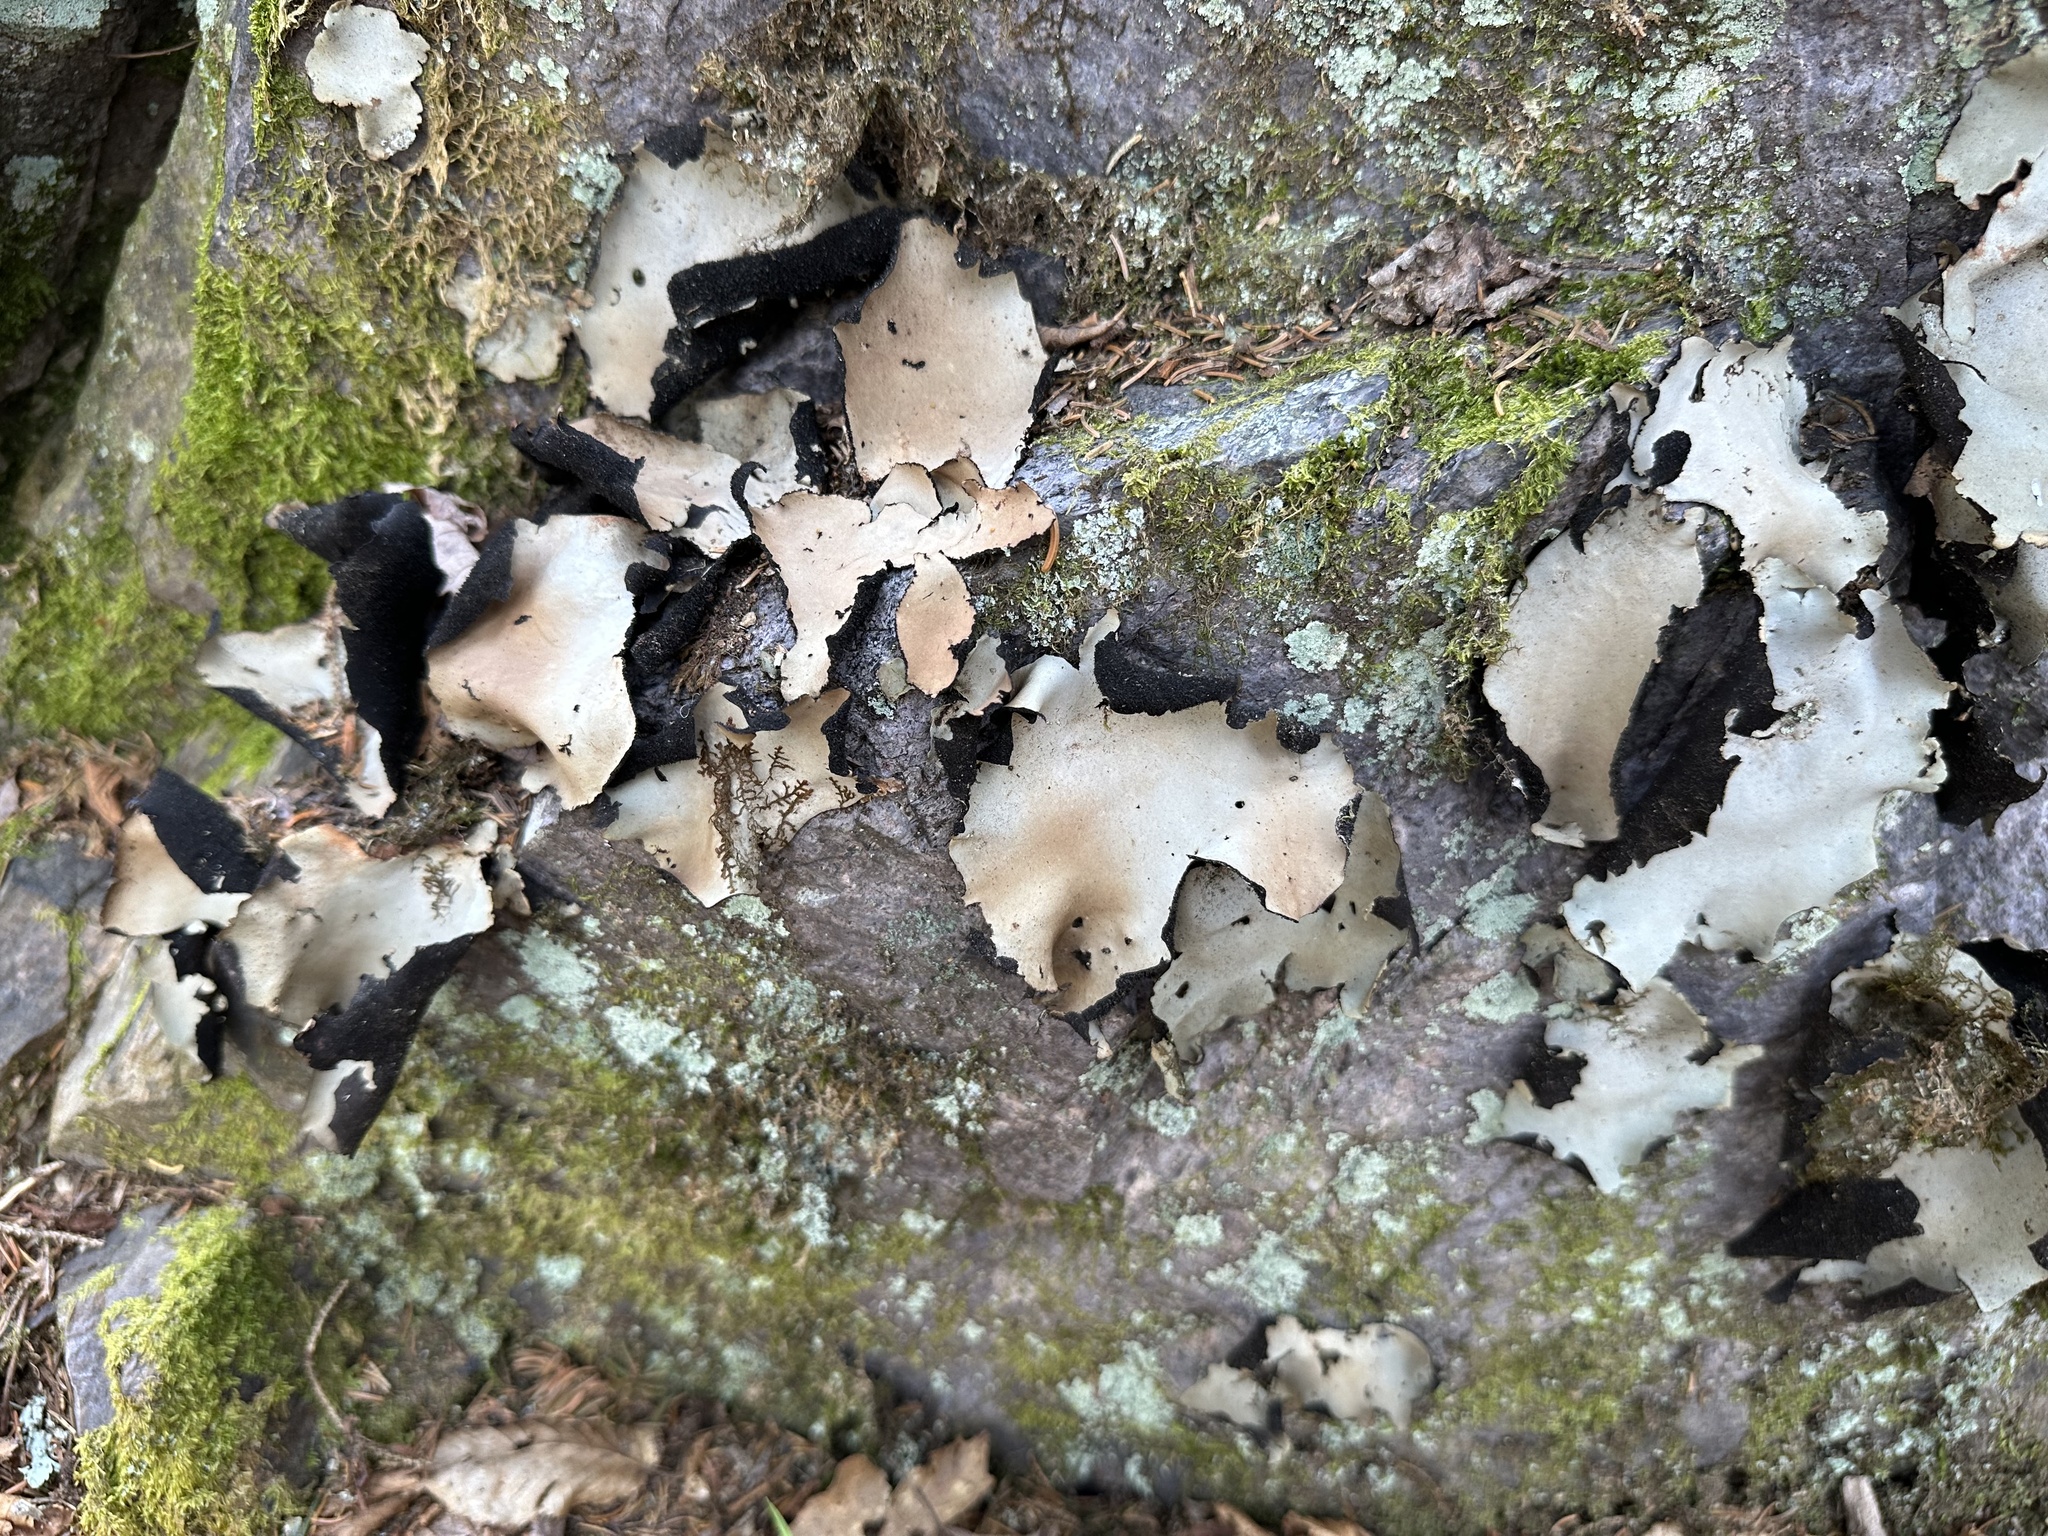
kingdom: Fungi
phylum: Ascomycota
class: Lecanoromycetes
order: Umbilicariales
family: Umbilicariaceae
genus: Umbilicaria
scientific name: Umbilicaria mammulata
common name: Smooth rock tripe
